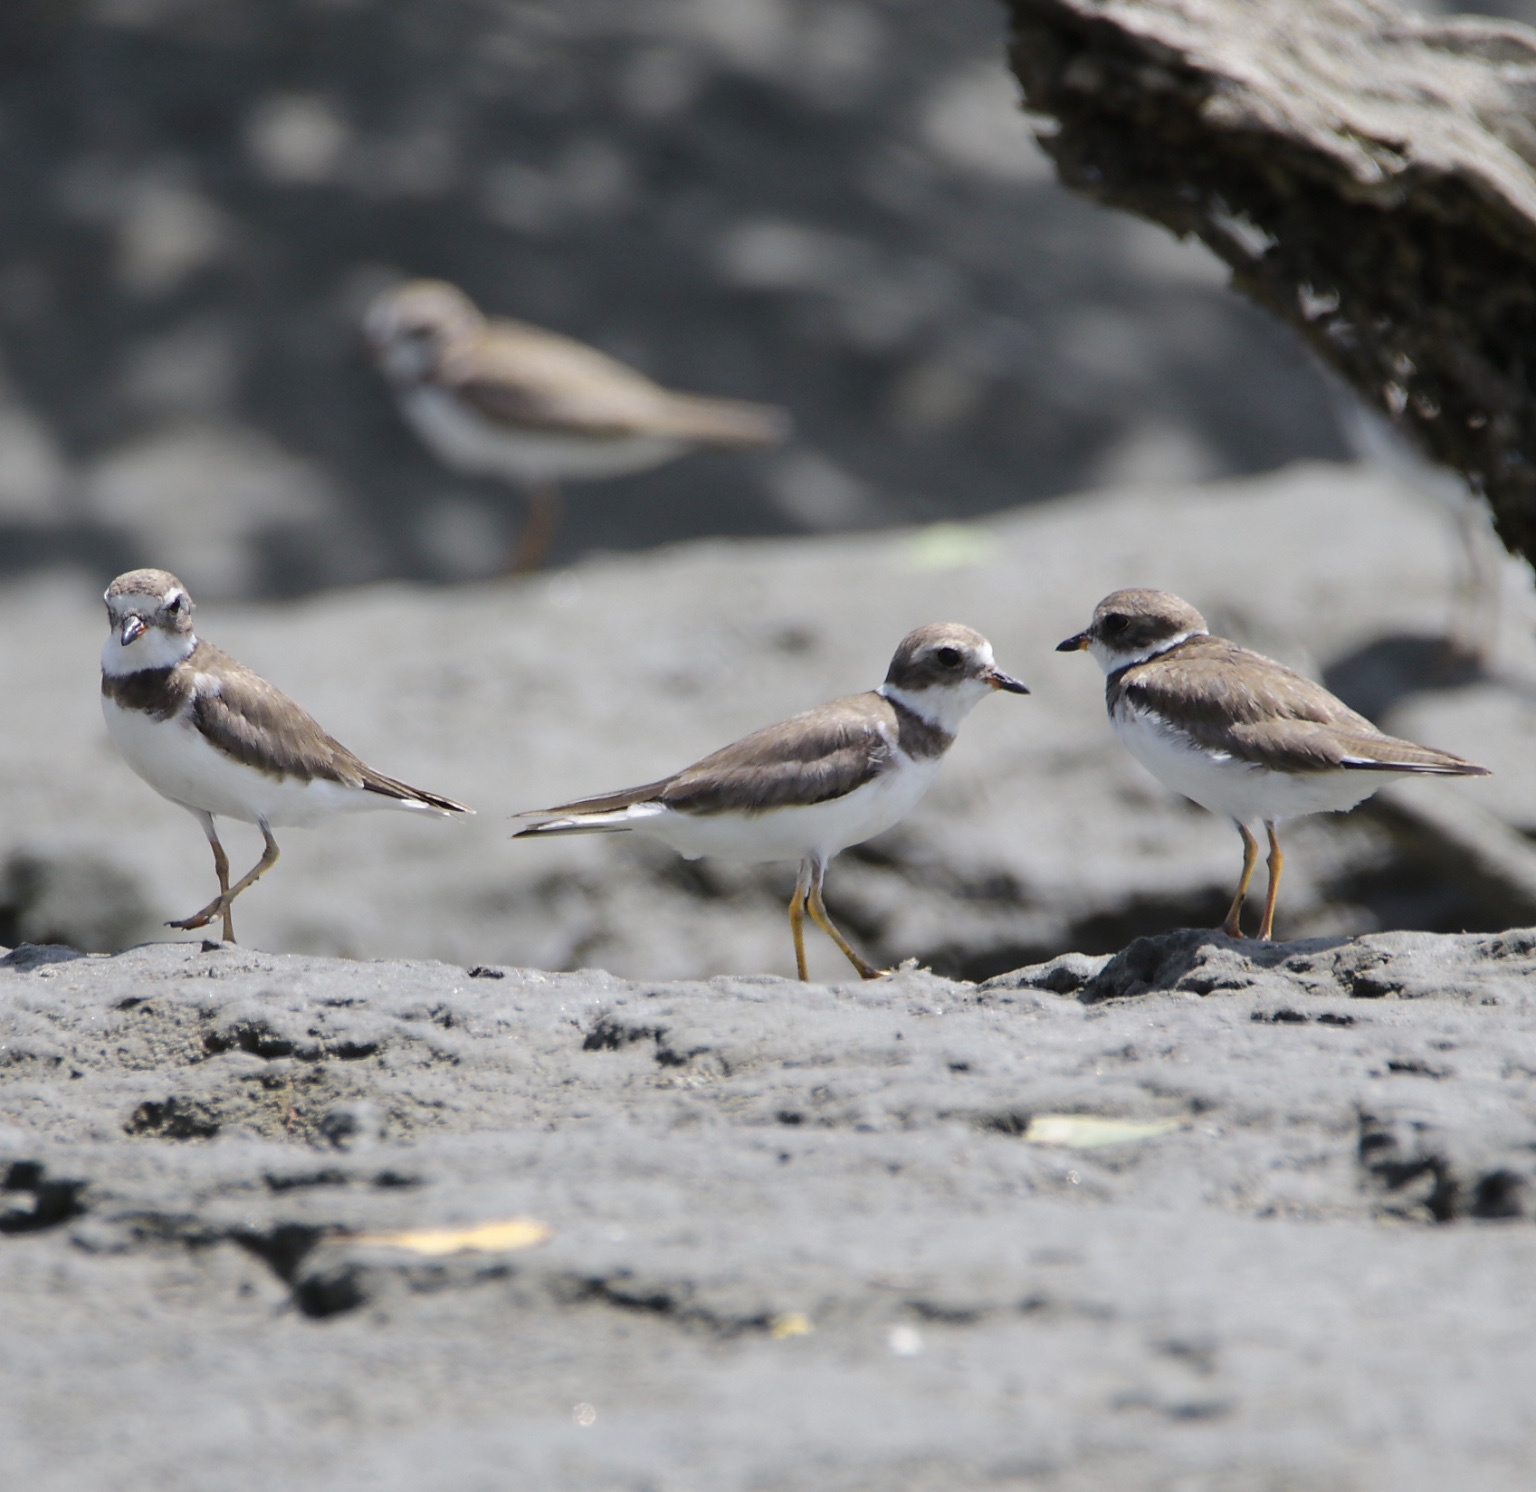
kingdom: Animalia
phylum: Chordata
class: Aves
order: Charadriiformes
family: Charadriidae
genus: Charadrius
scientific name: Charadrius semipalmatus
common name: Semipalmated plover
